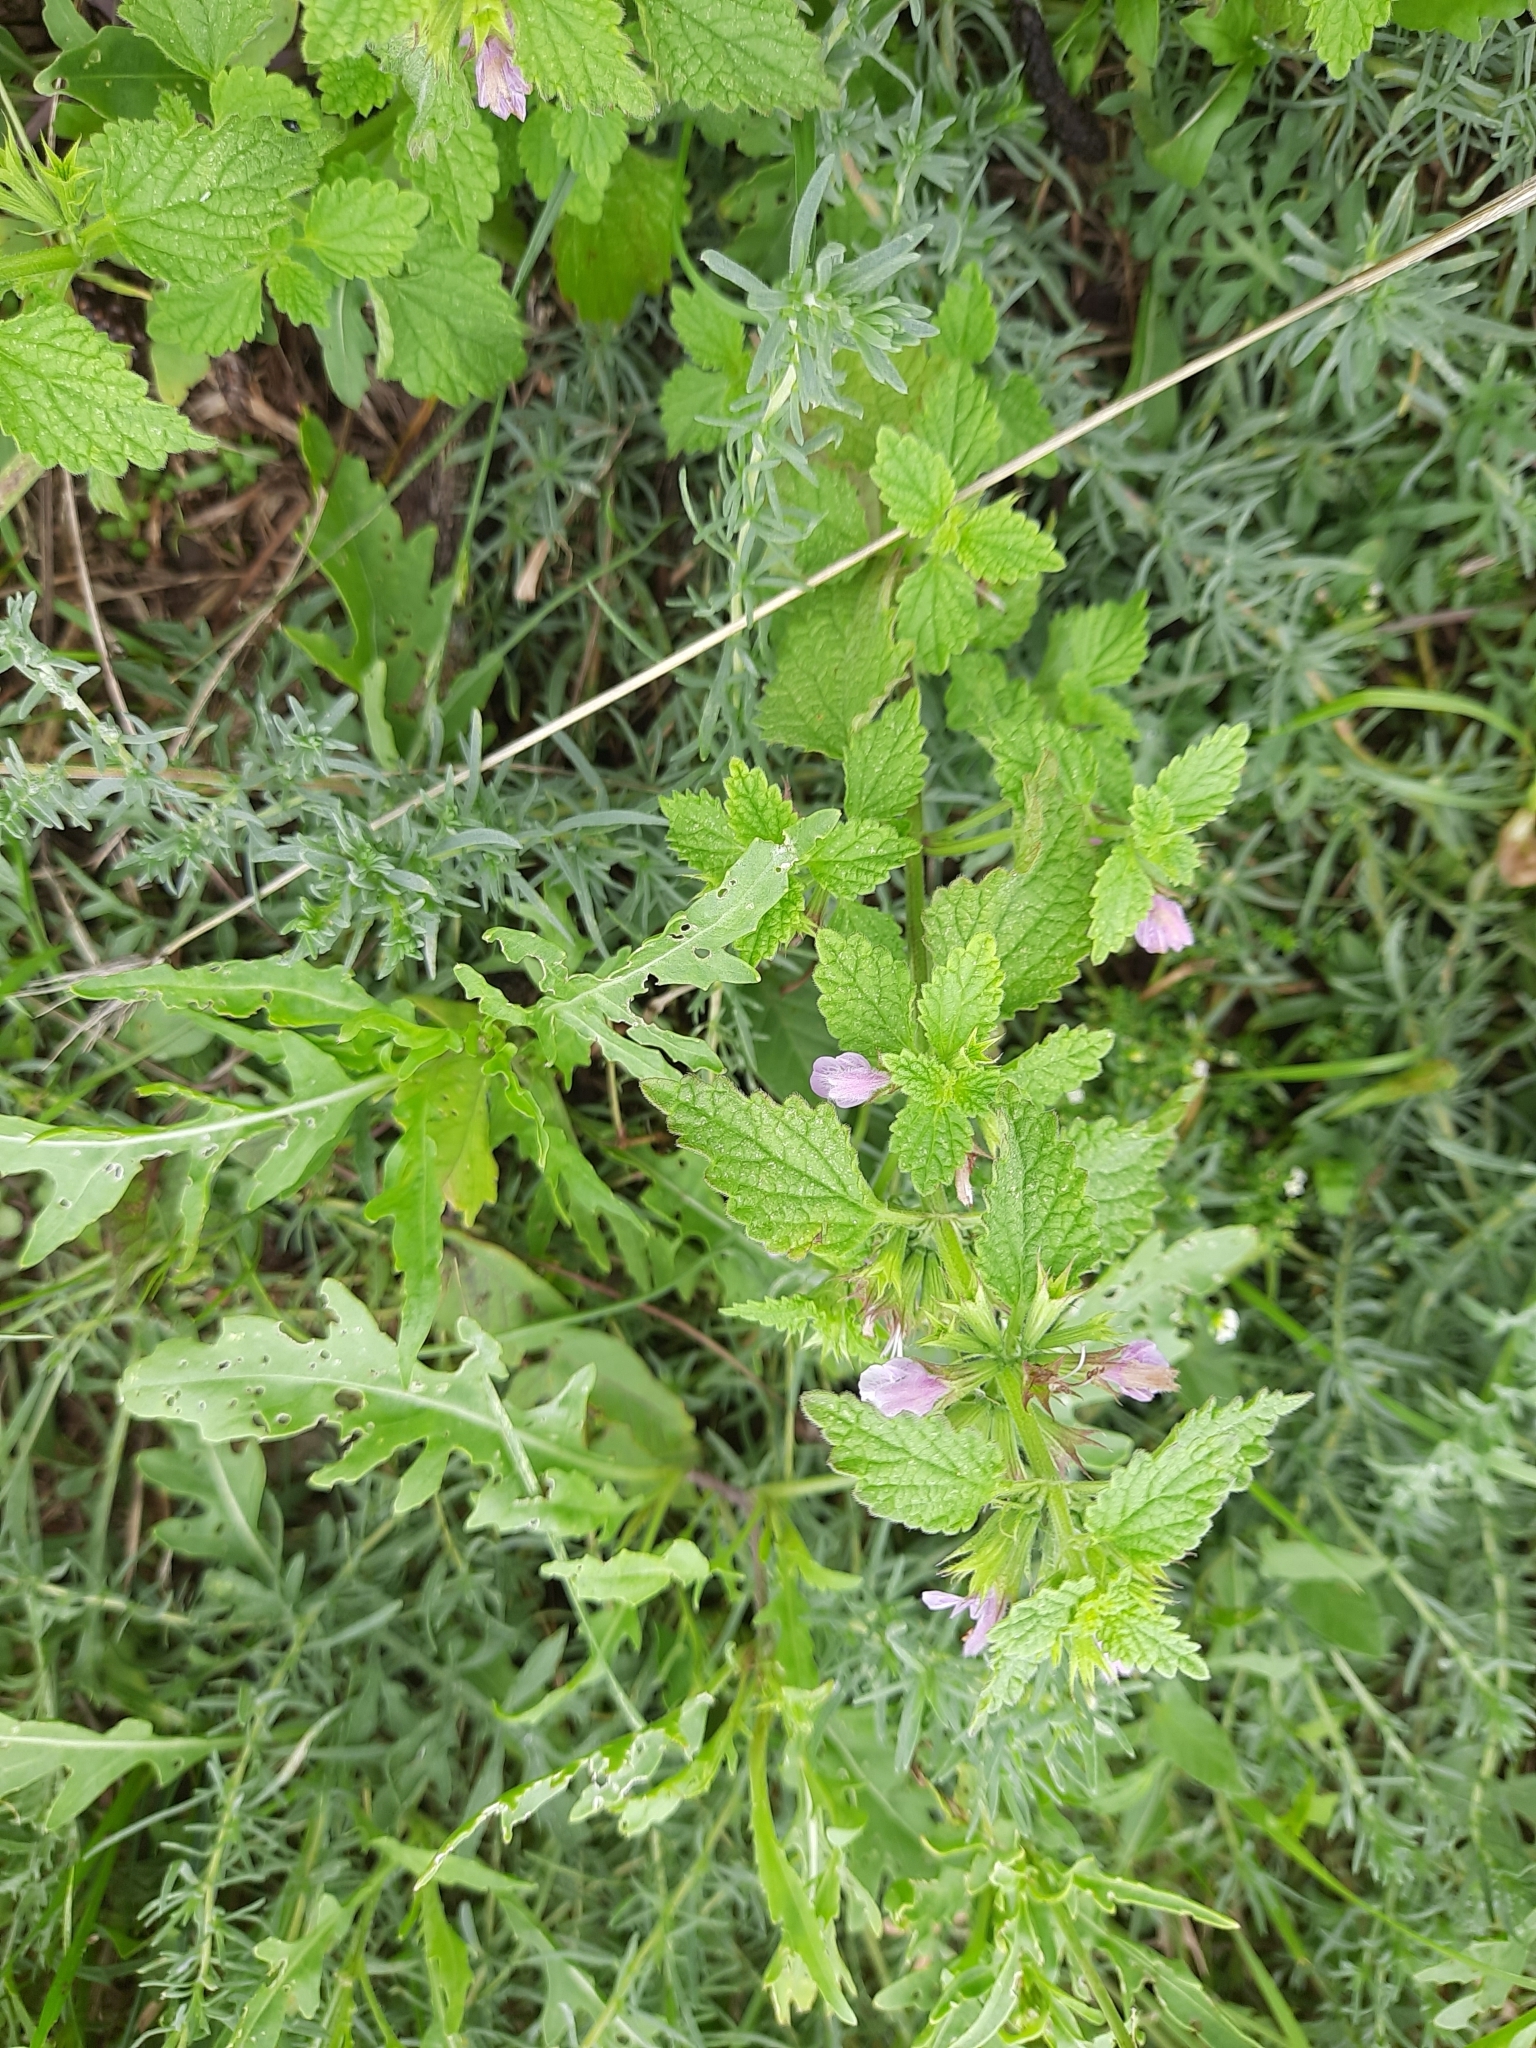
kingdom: Plantae
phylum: Tracheophyta
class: Magnoliopsida
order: Lamiales
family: Lamiaceae
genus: Ballota
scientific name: Ballota nigra
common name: Black horehound
